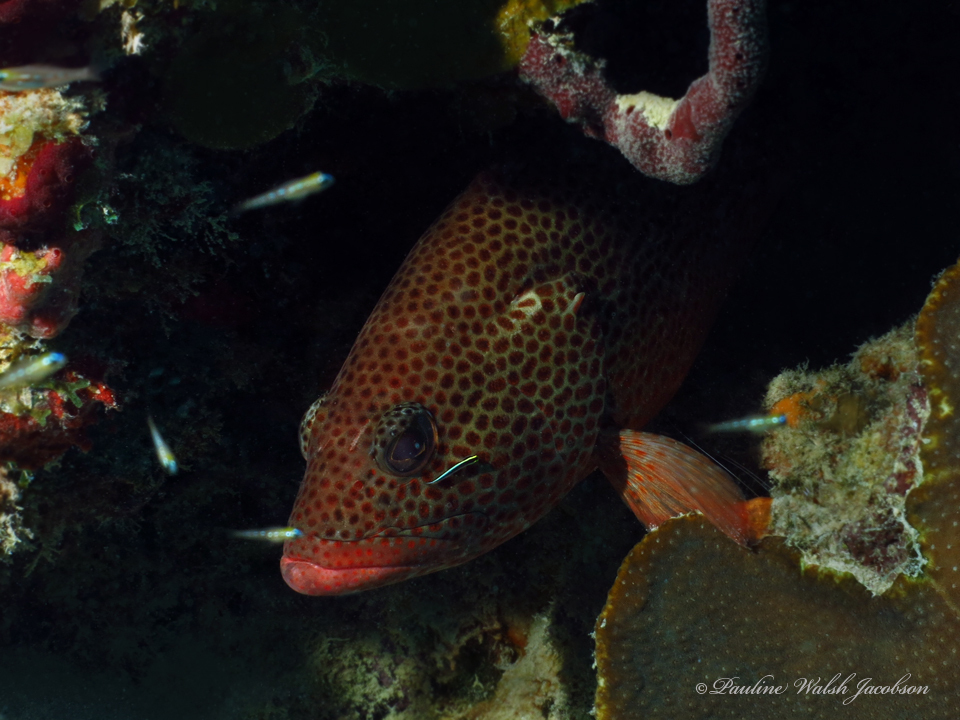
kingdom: Animalia
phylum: Chordata
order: Perciformes
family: Serranidae
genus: Epinephelus
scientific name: Epinephelus guttatus
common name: Red hind
